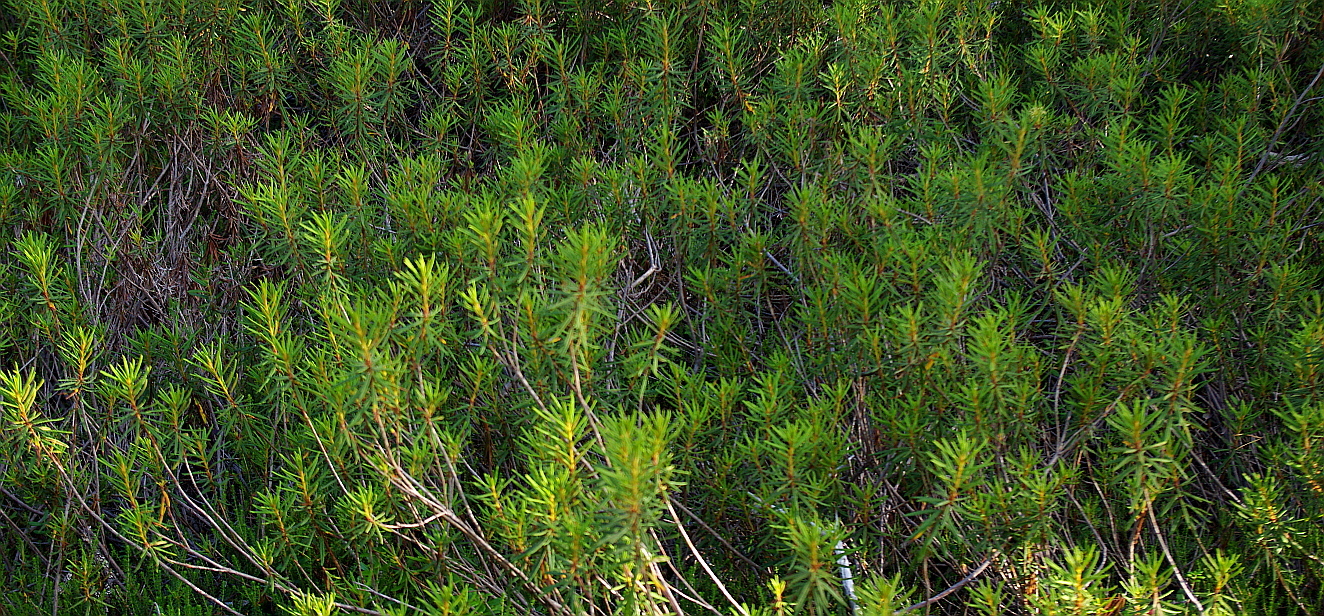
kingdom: Plantae
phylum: Tracheophyta
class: Magnoliopsida
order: Ericales
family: Ericaceae
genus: Rhododendron
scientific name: Rhododendron tomentosum
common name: Marsh labrador tea
